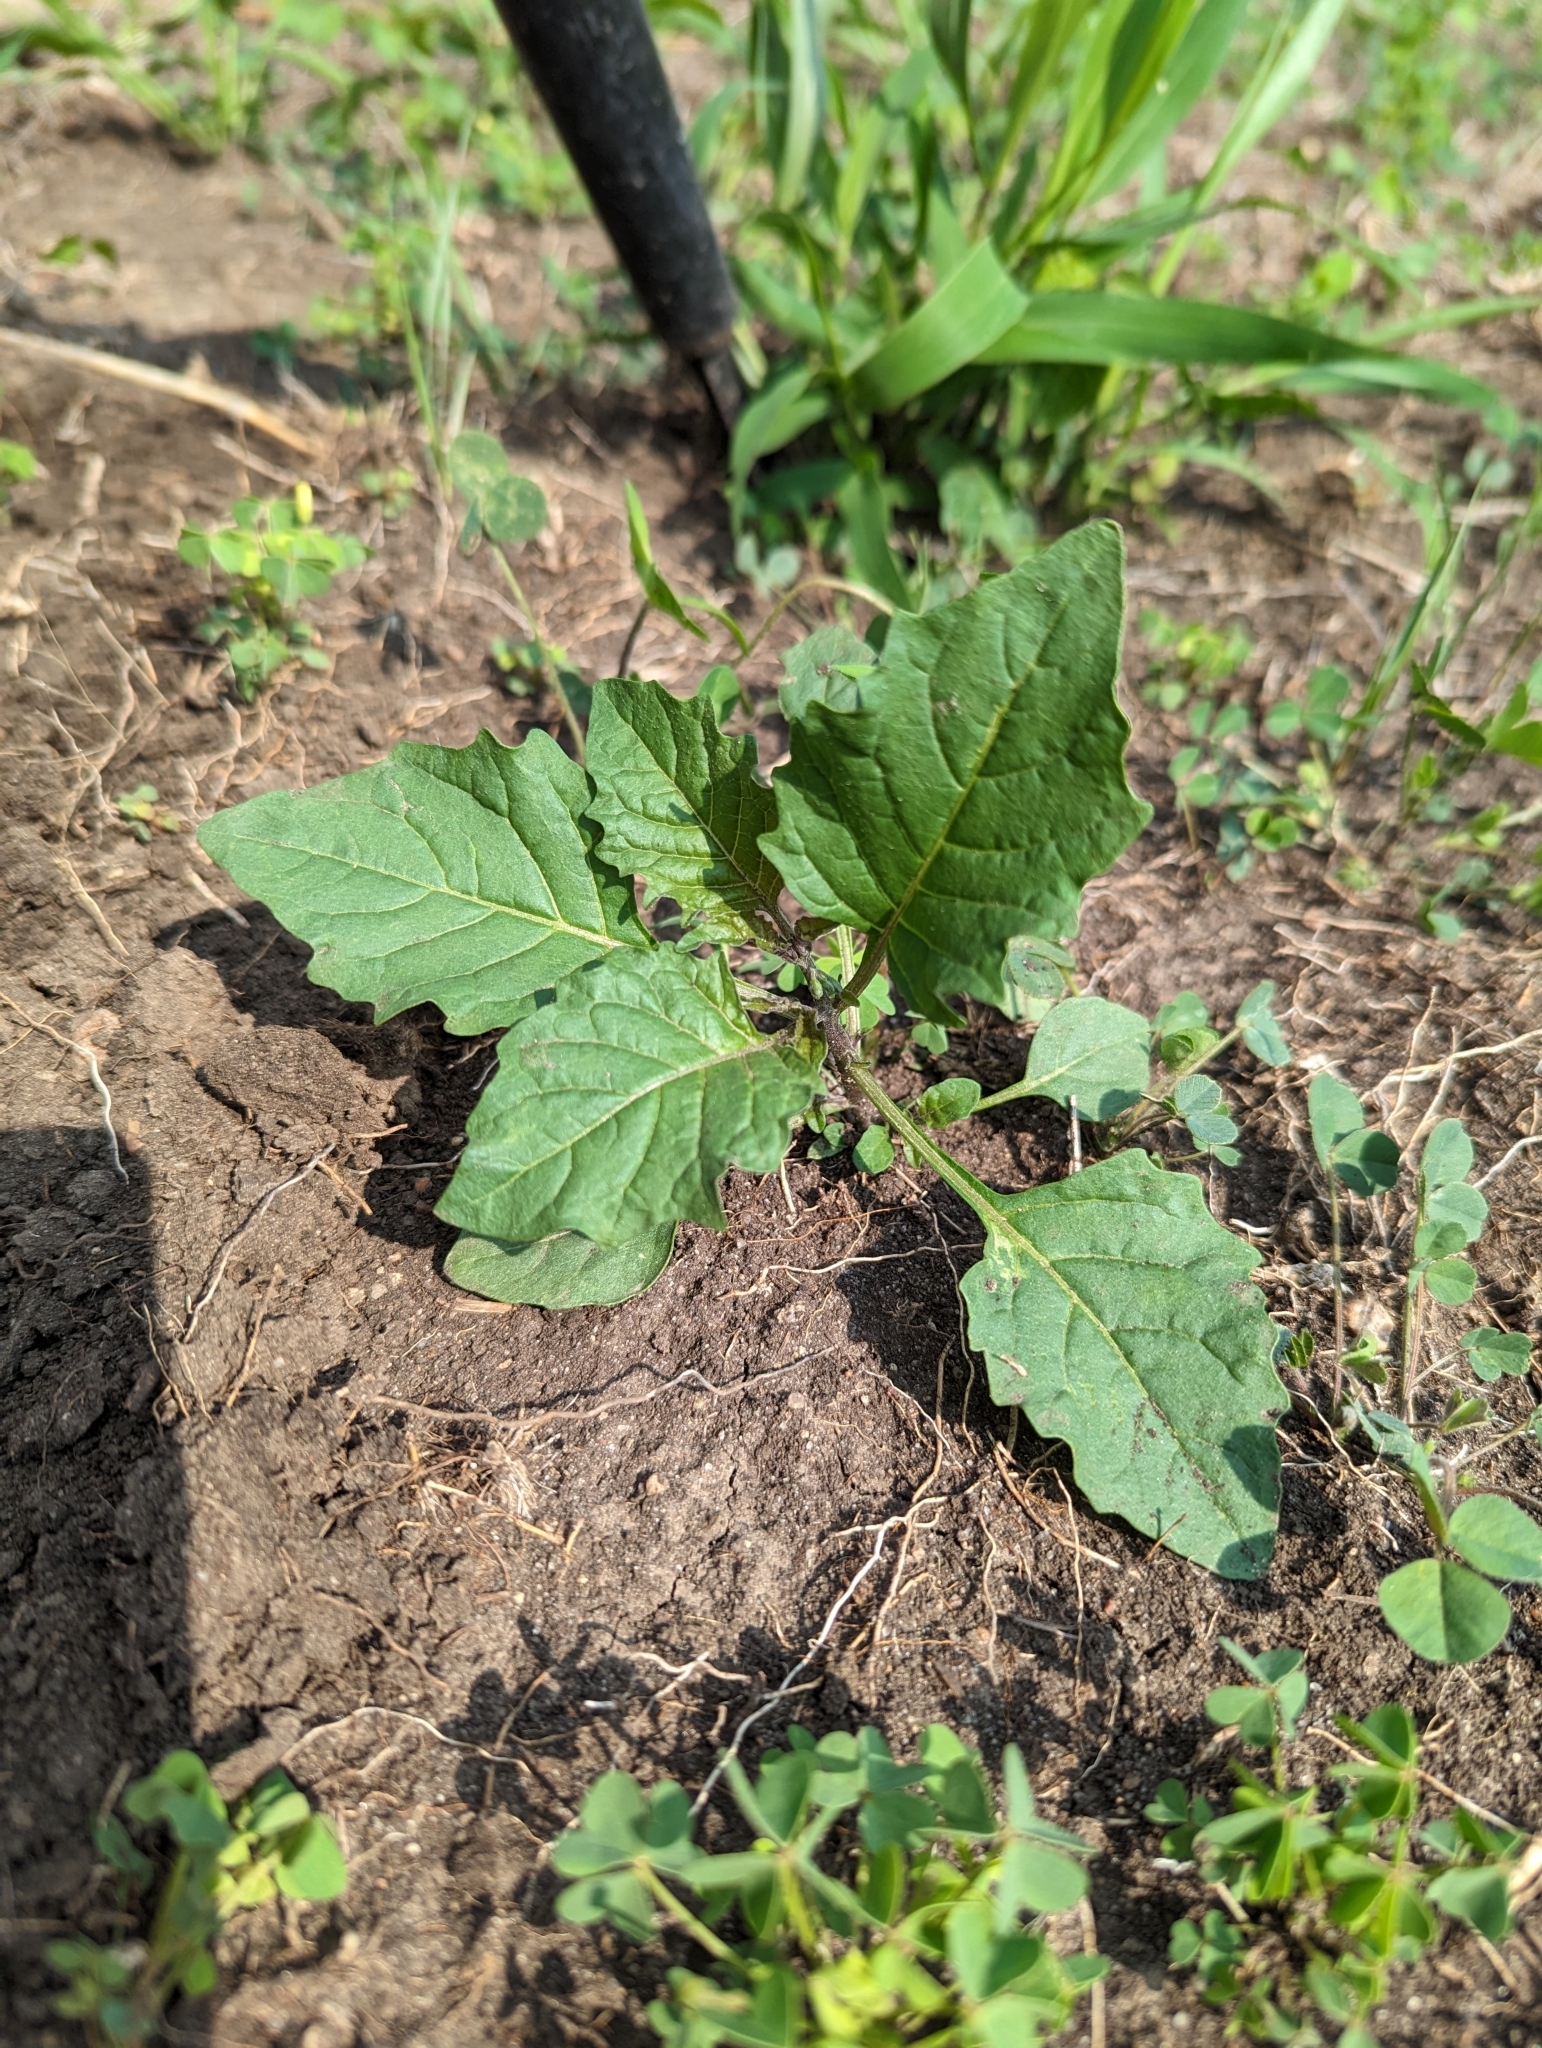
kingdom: Plantae
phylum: Tracheophyta
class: Magnoliopsida
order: Solanales
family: Solanaceae
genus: Solanum
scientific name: Solanum emulans
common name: Eastern black nightshade
